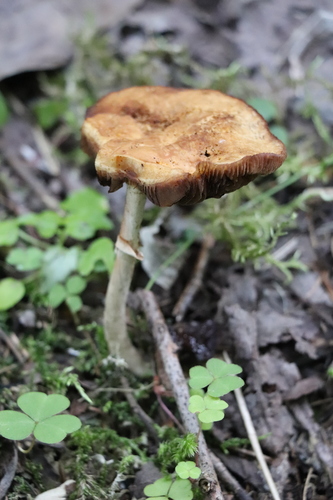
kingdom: Fungi
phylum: Basidiomycota
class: Agaricomycetes
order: Agaricales
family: Strophariaceae
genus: Agrocybe
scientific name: Agrocybe praecox
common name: Spring fieldcap
